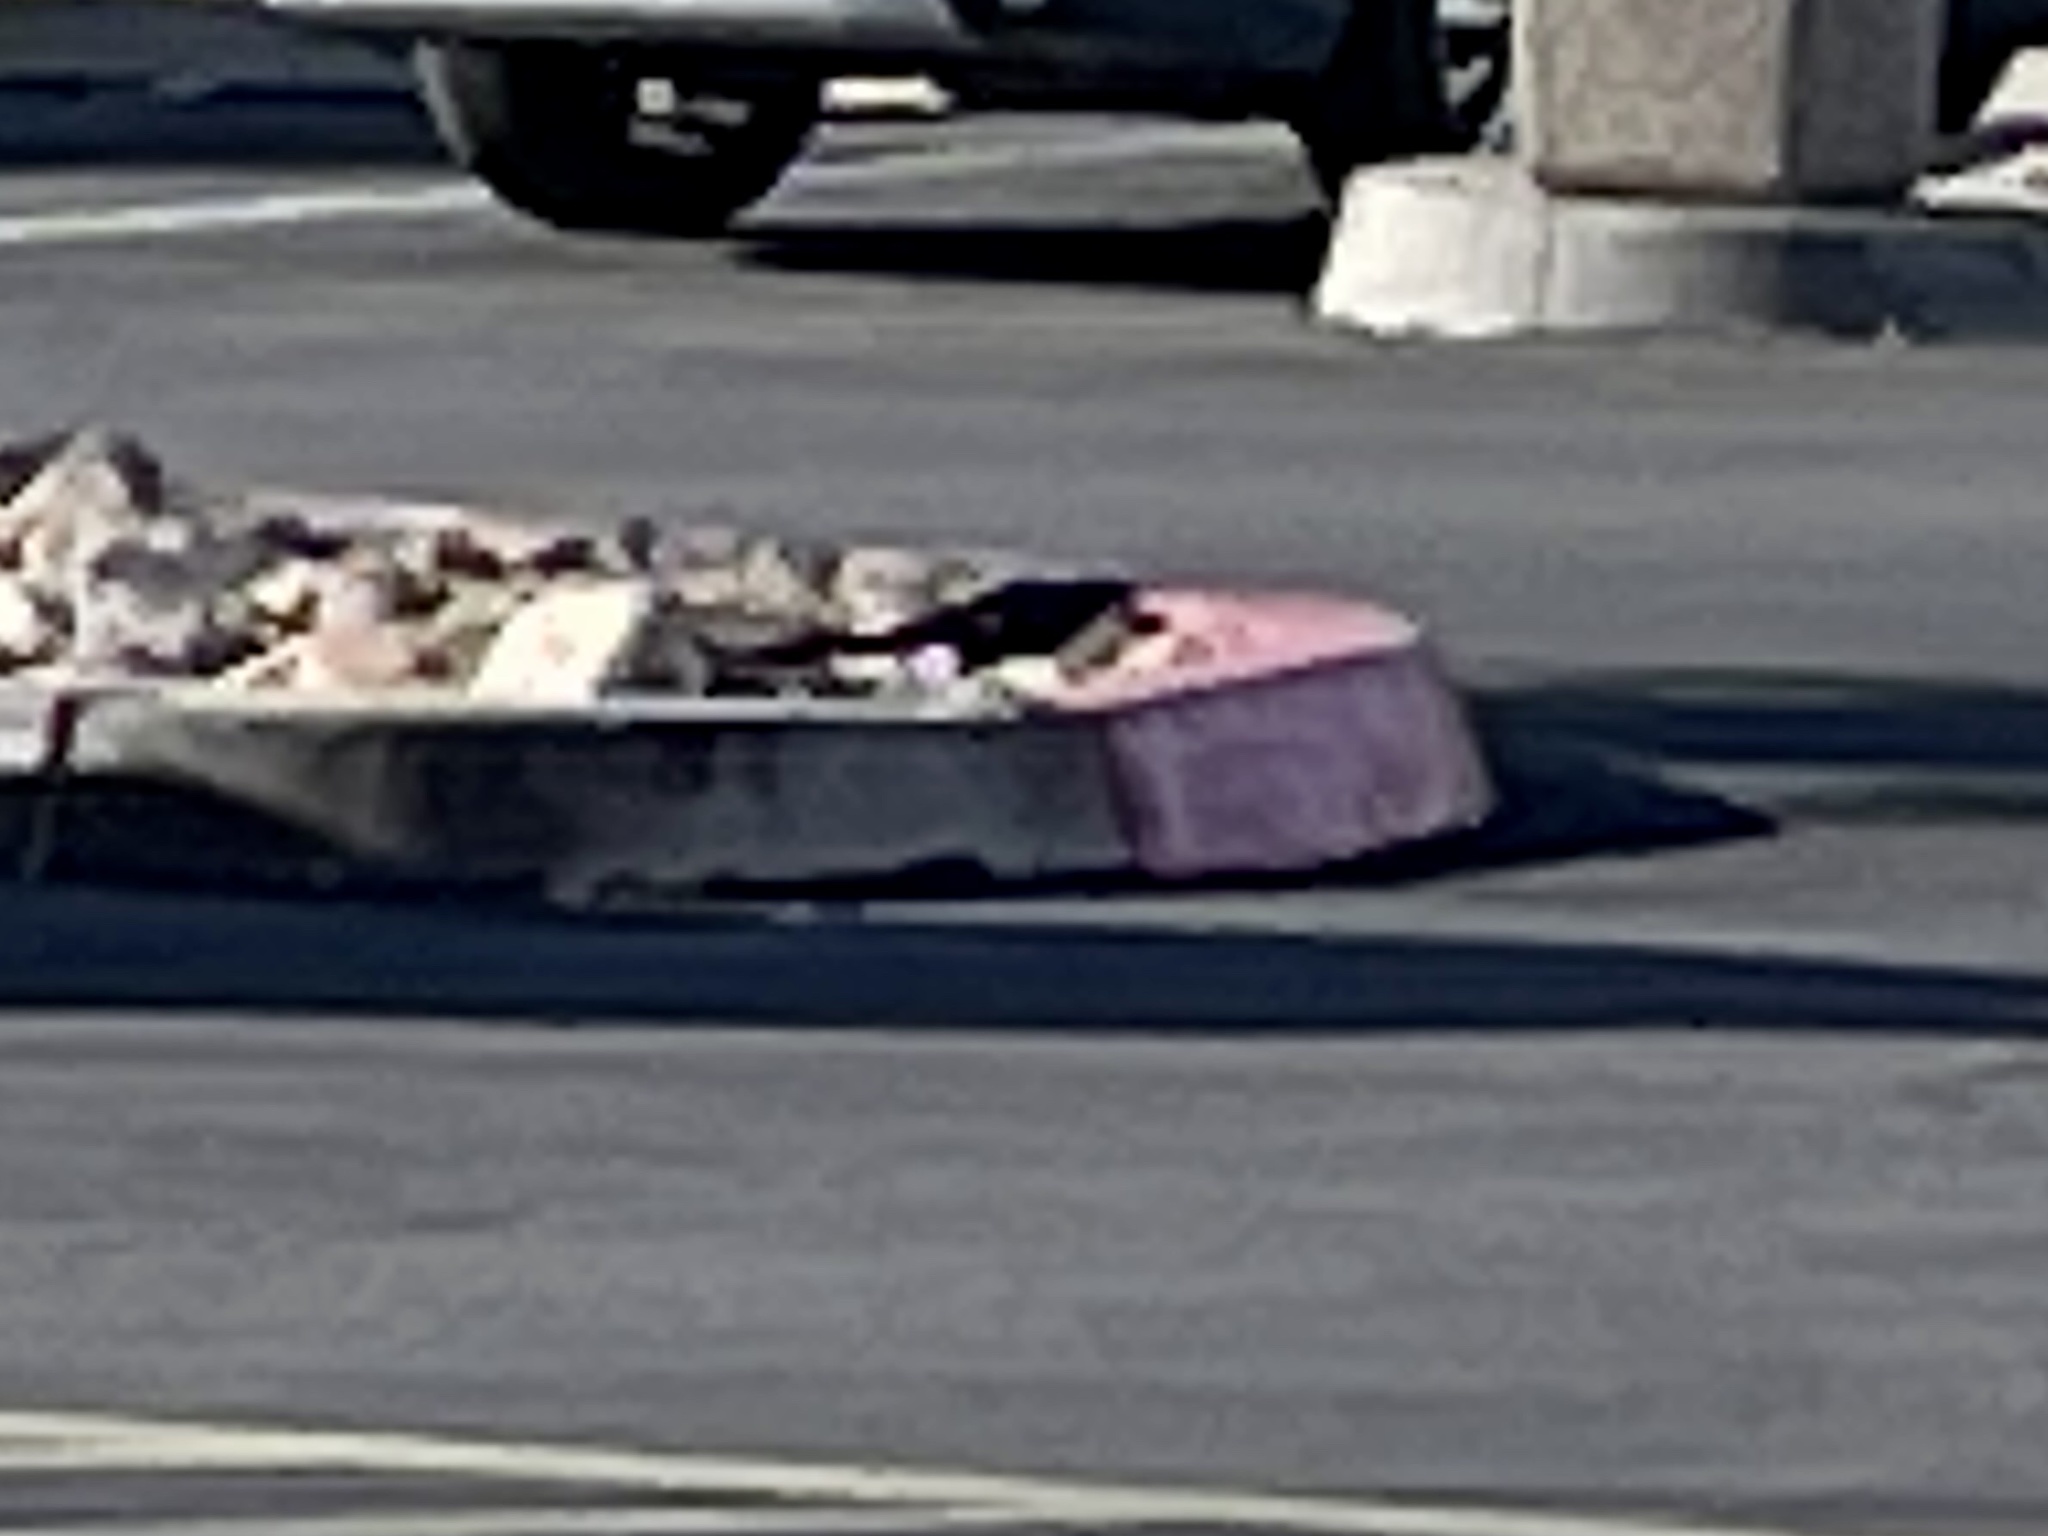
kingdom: Animalia
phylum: Chordata
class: Aves
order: Passeriformes
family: Icteridae
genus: Quiscalus
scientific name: Quiscalus mexicanus
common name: Great-tailed grackle
